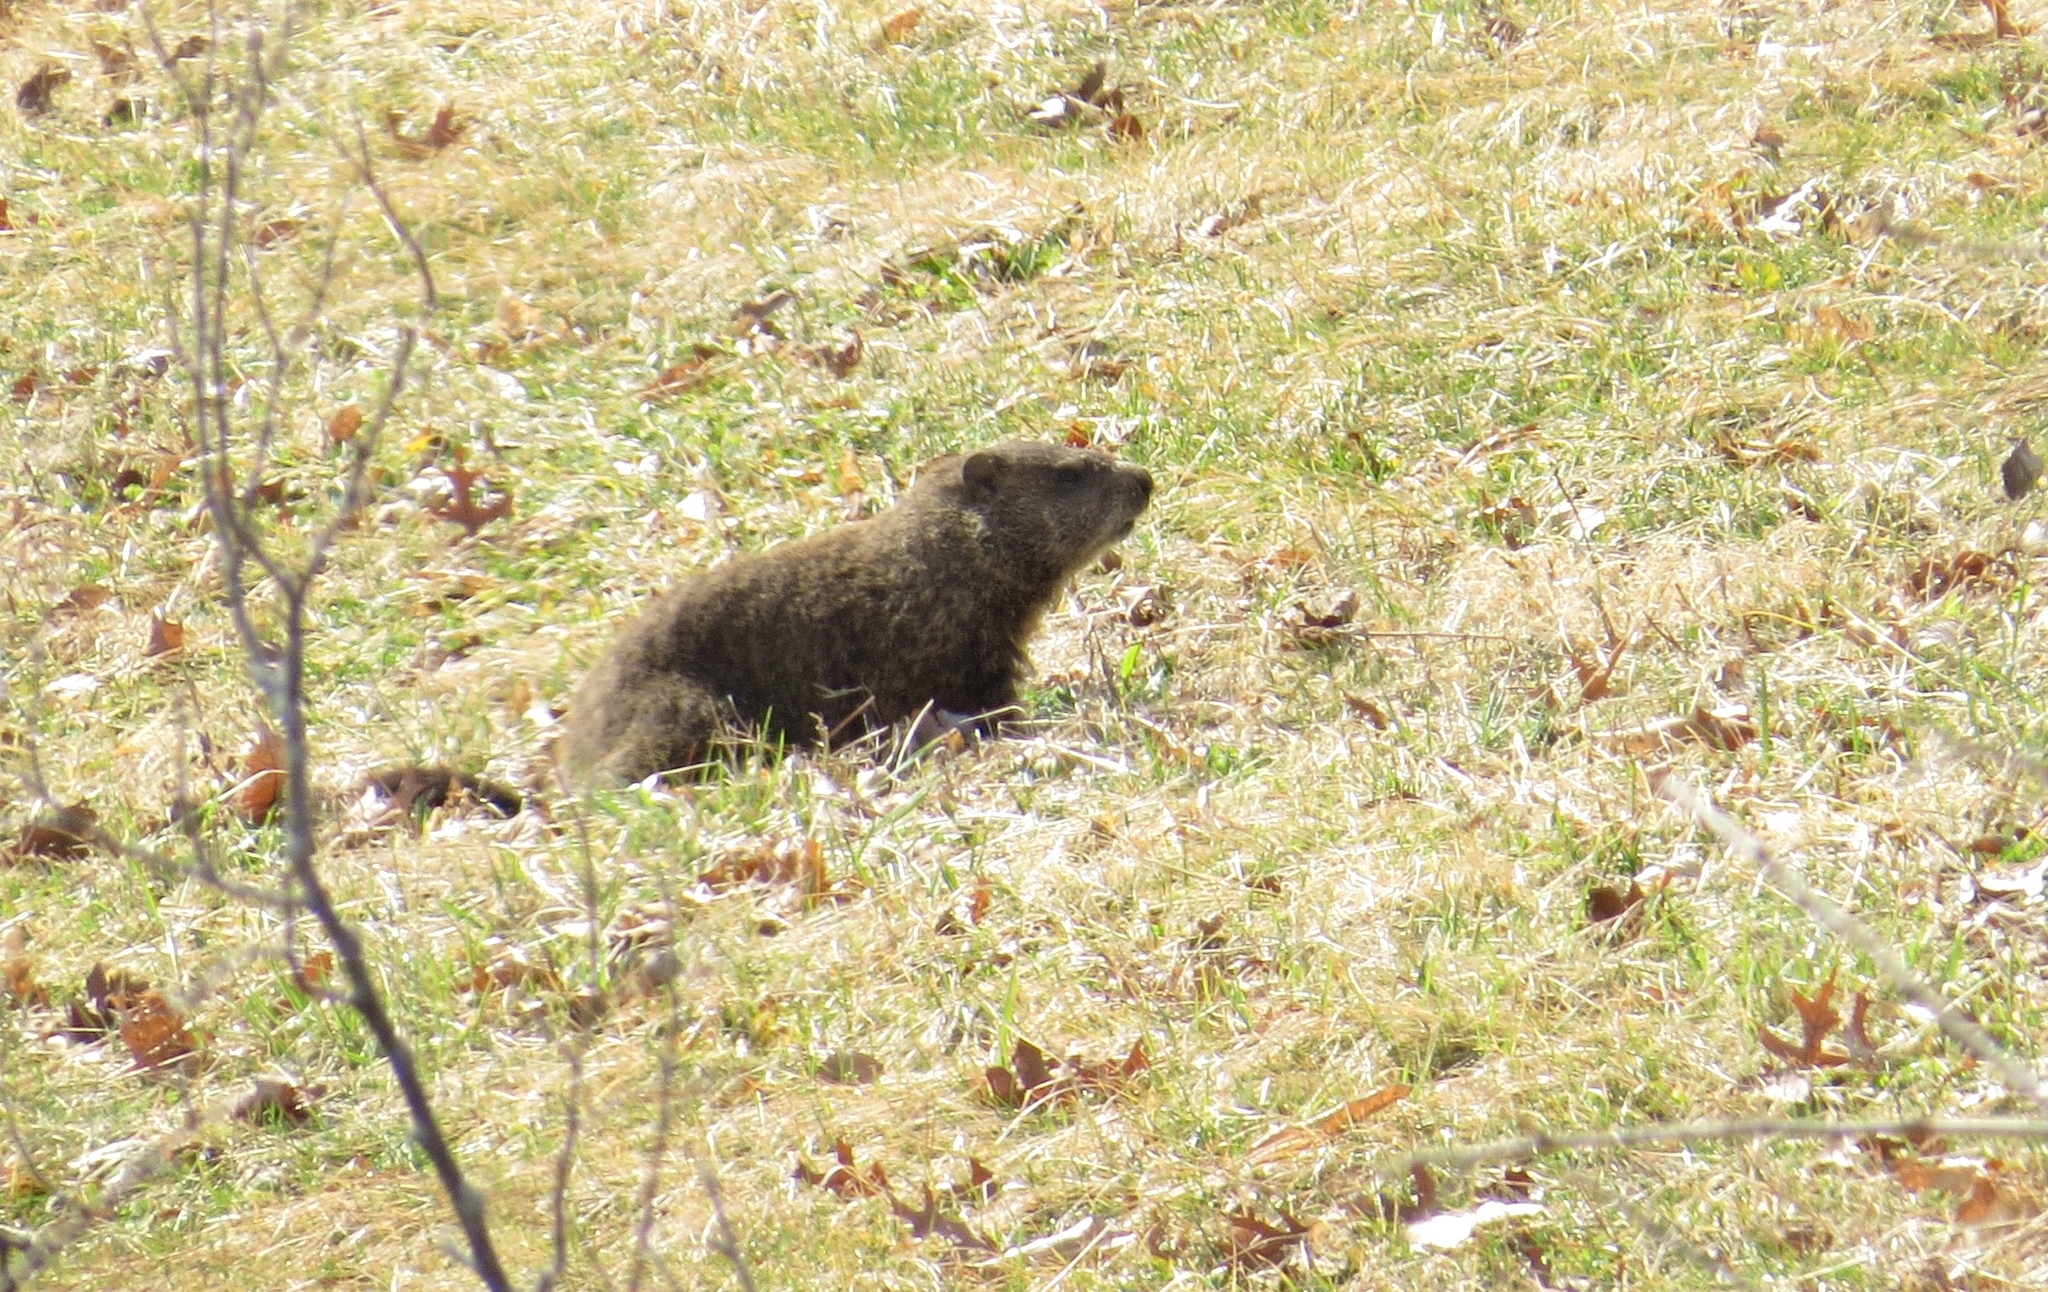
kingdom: Animalia
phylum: Chordata
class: Mammalia
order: Rodentia
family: Sciuridae
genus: Marmota
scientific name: Marmota monax
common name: Groundhog
